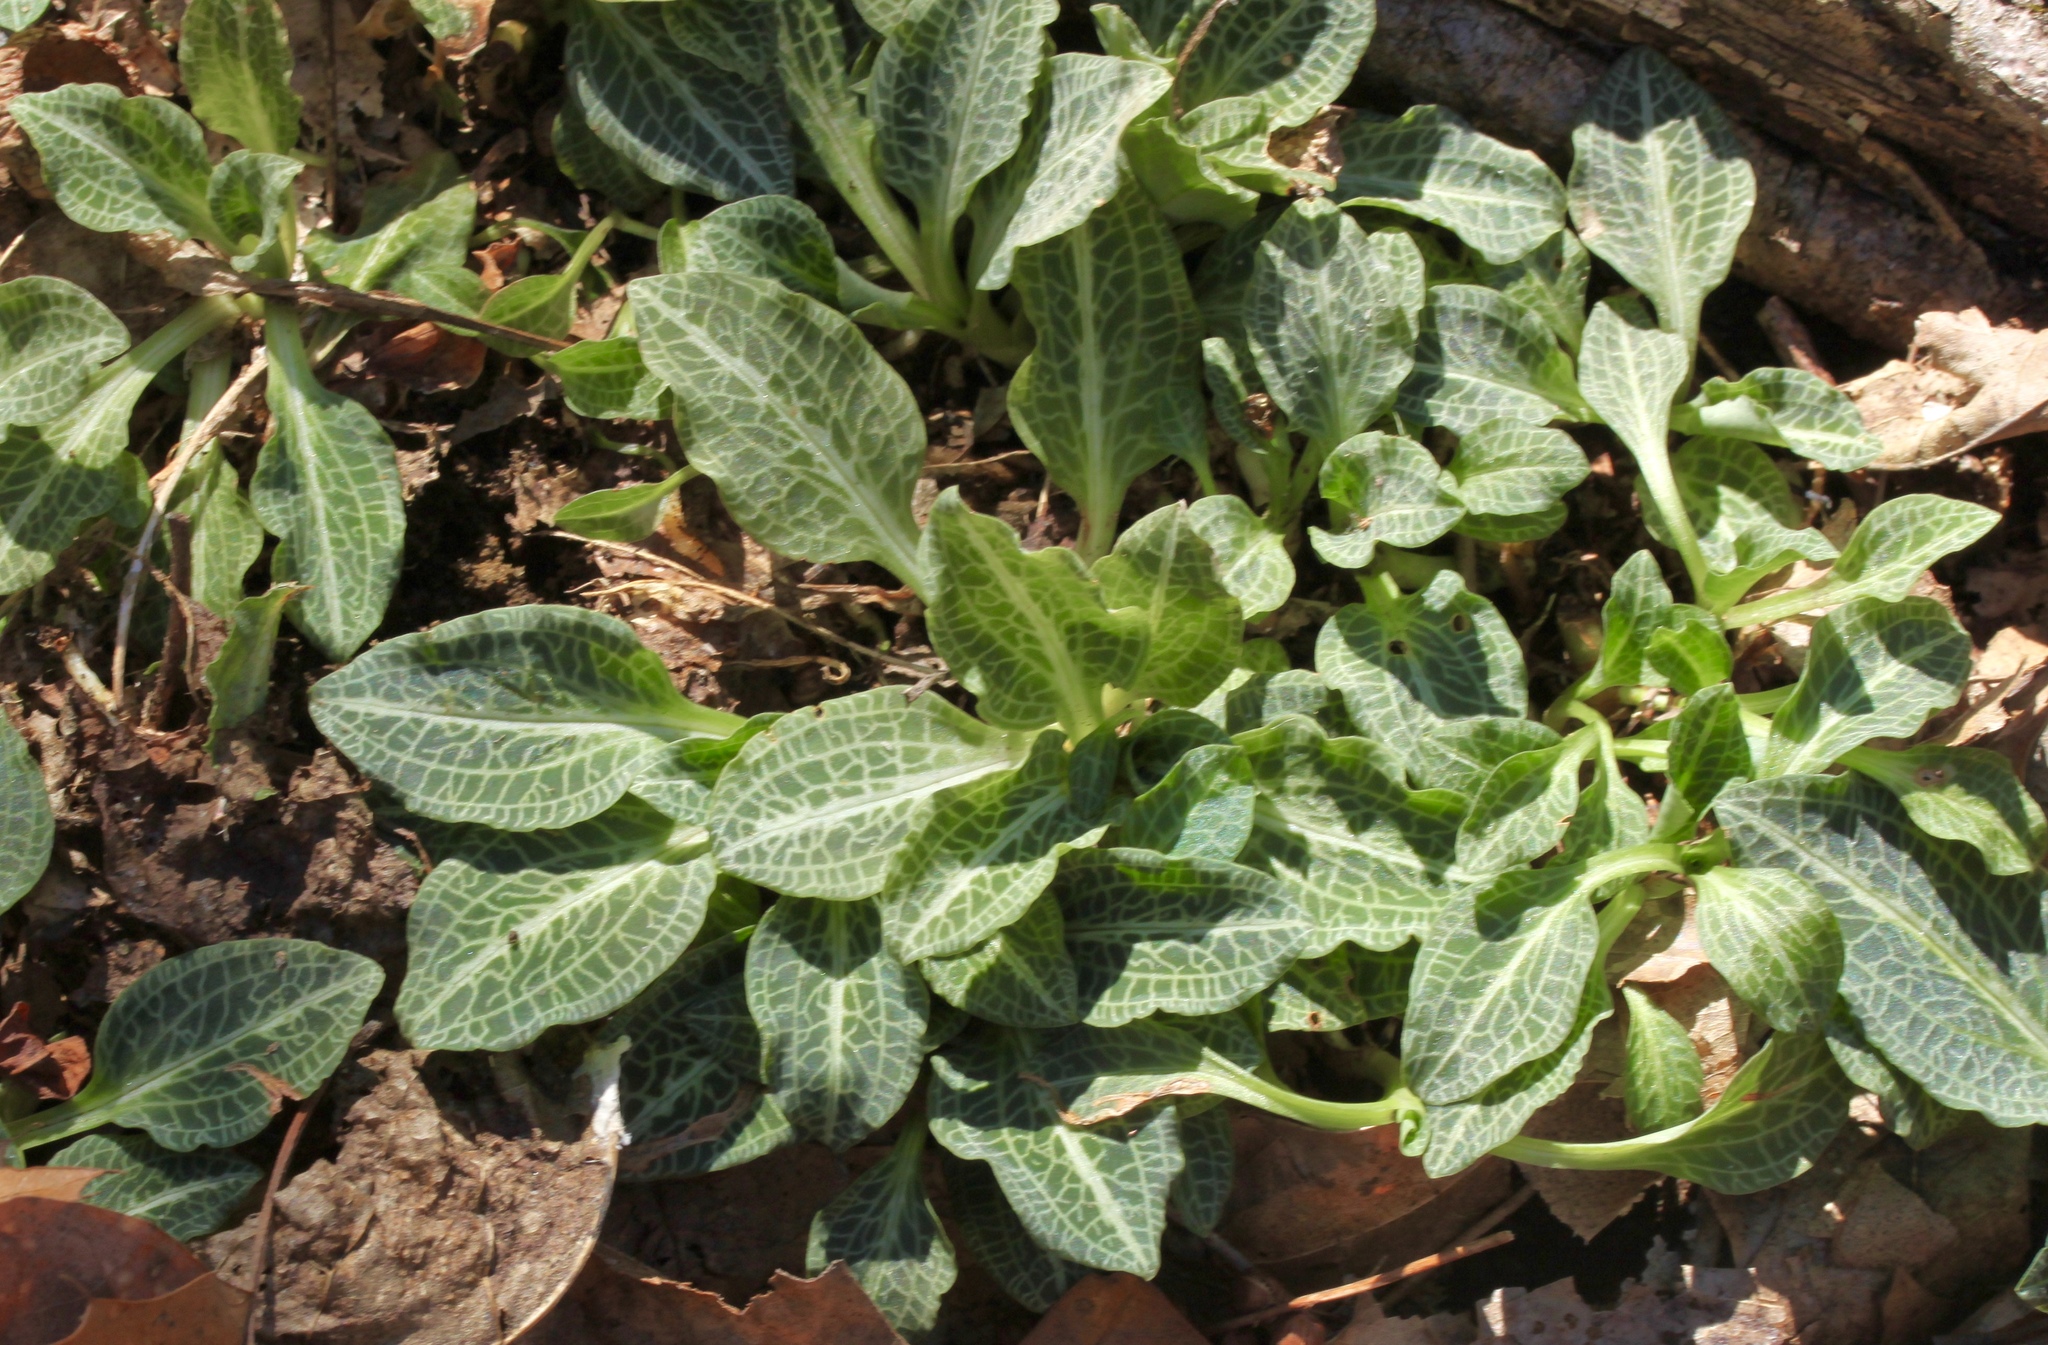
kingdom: Plantae
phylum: Tracheophyta
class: Liliopsida
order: Asparagales
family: Orchidaceae
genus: Goodyera
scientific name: Goodyera pubescens
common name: Downy rattlesnake-plantain
